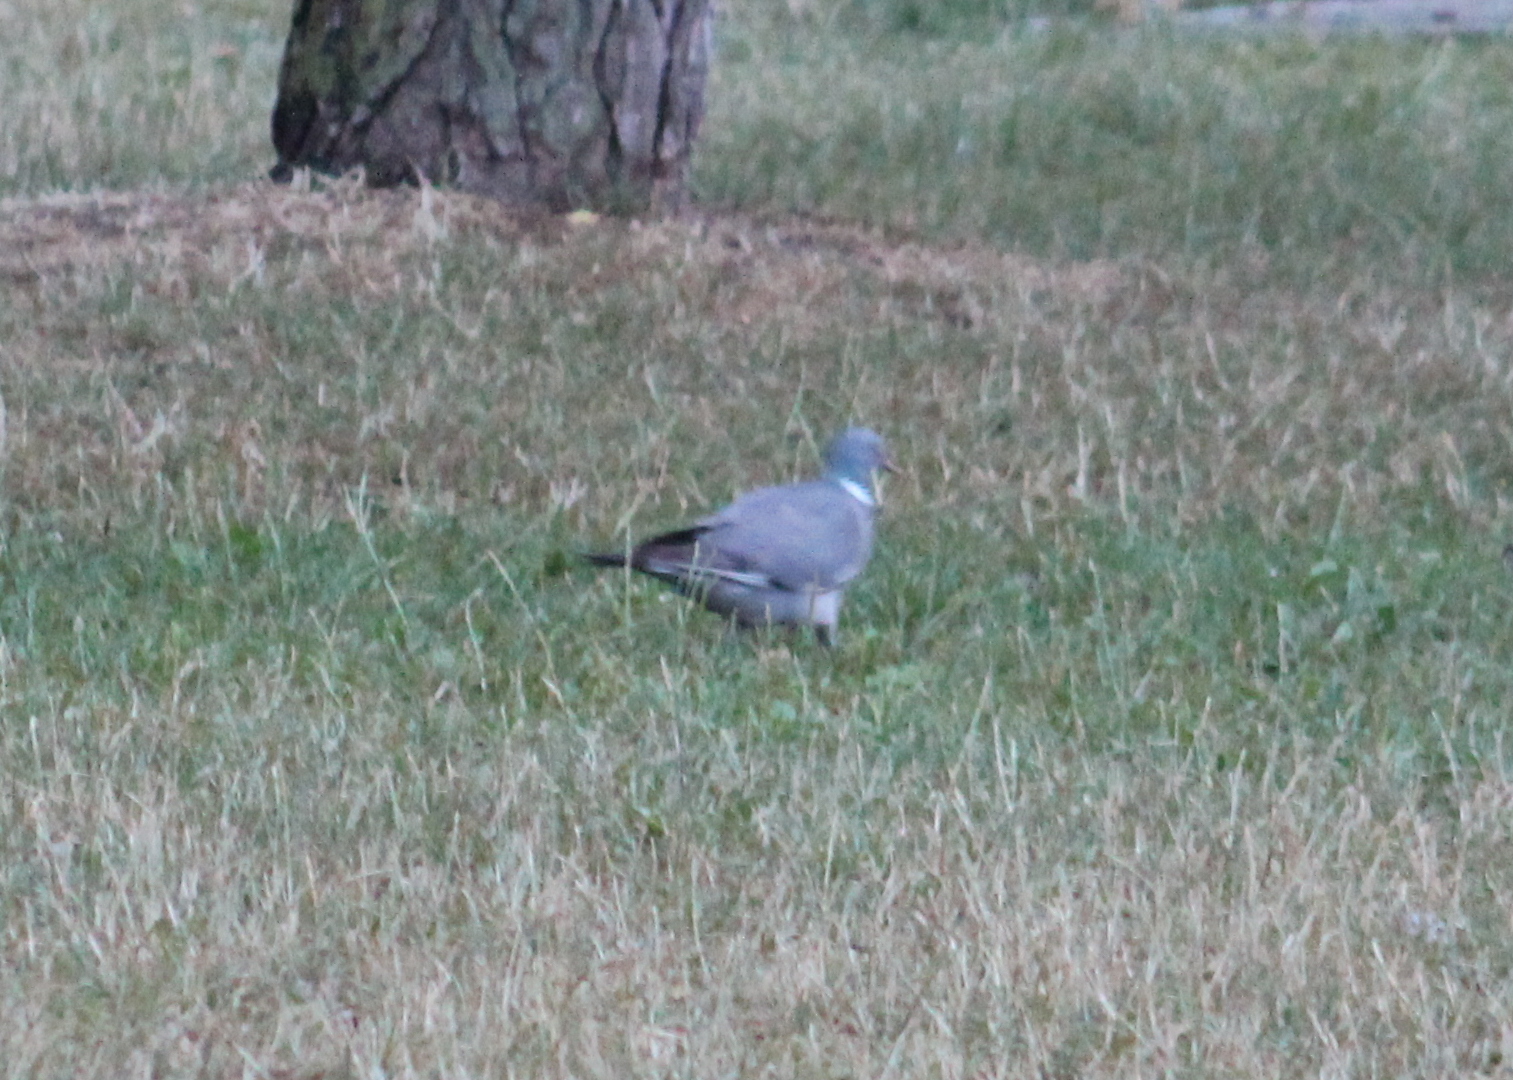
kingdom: Animalia
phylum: Chordata
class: Aves
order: Columbiformes
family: Columbidae
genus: Columba
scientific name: Columba palumbus
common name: Common wood pigeon
